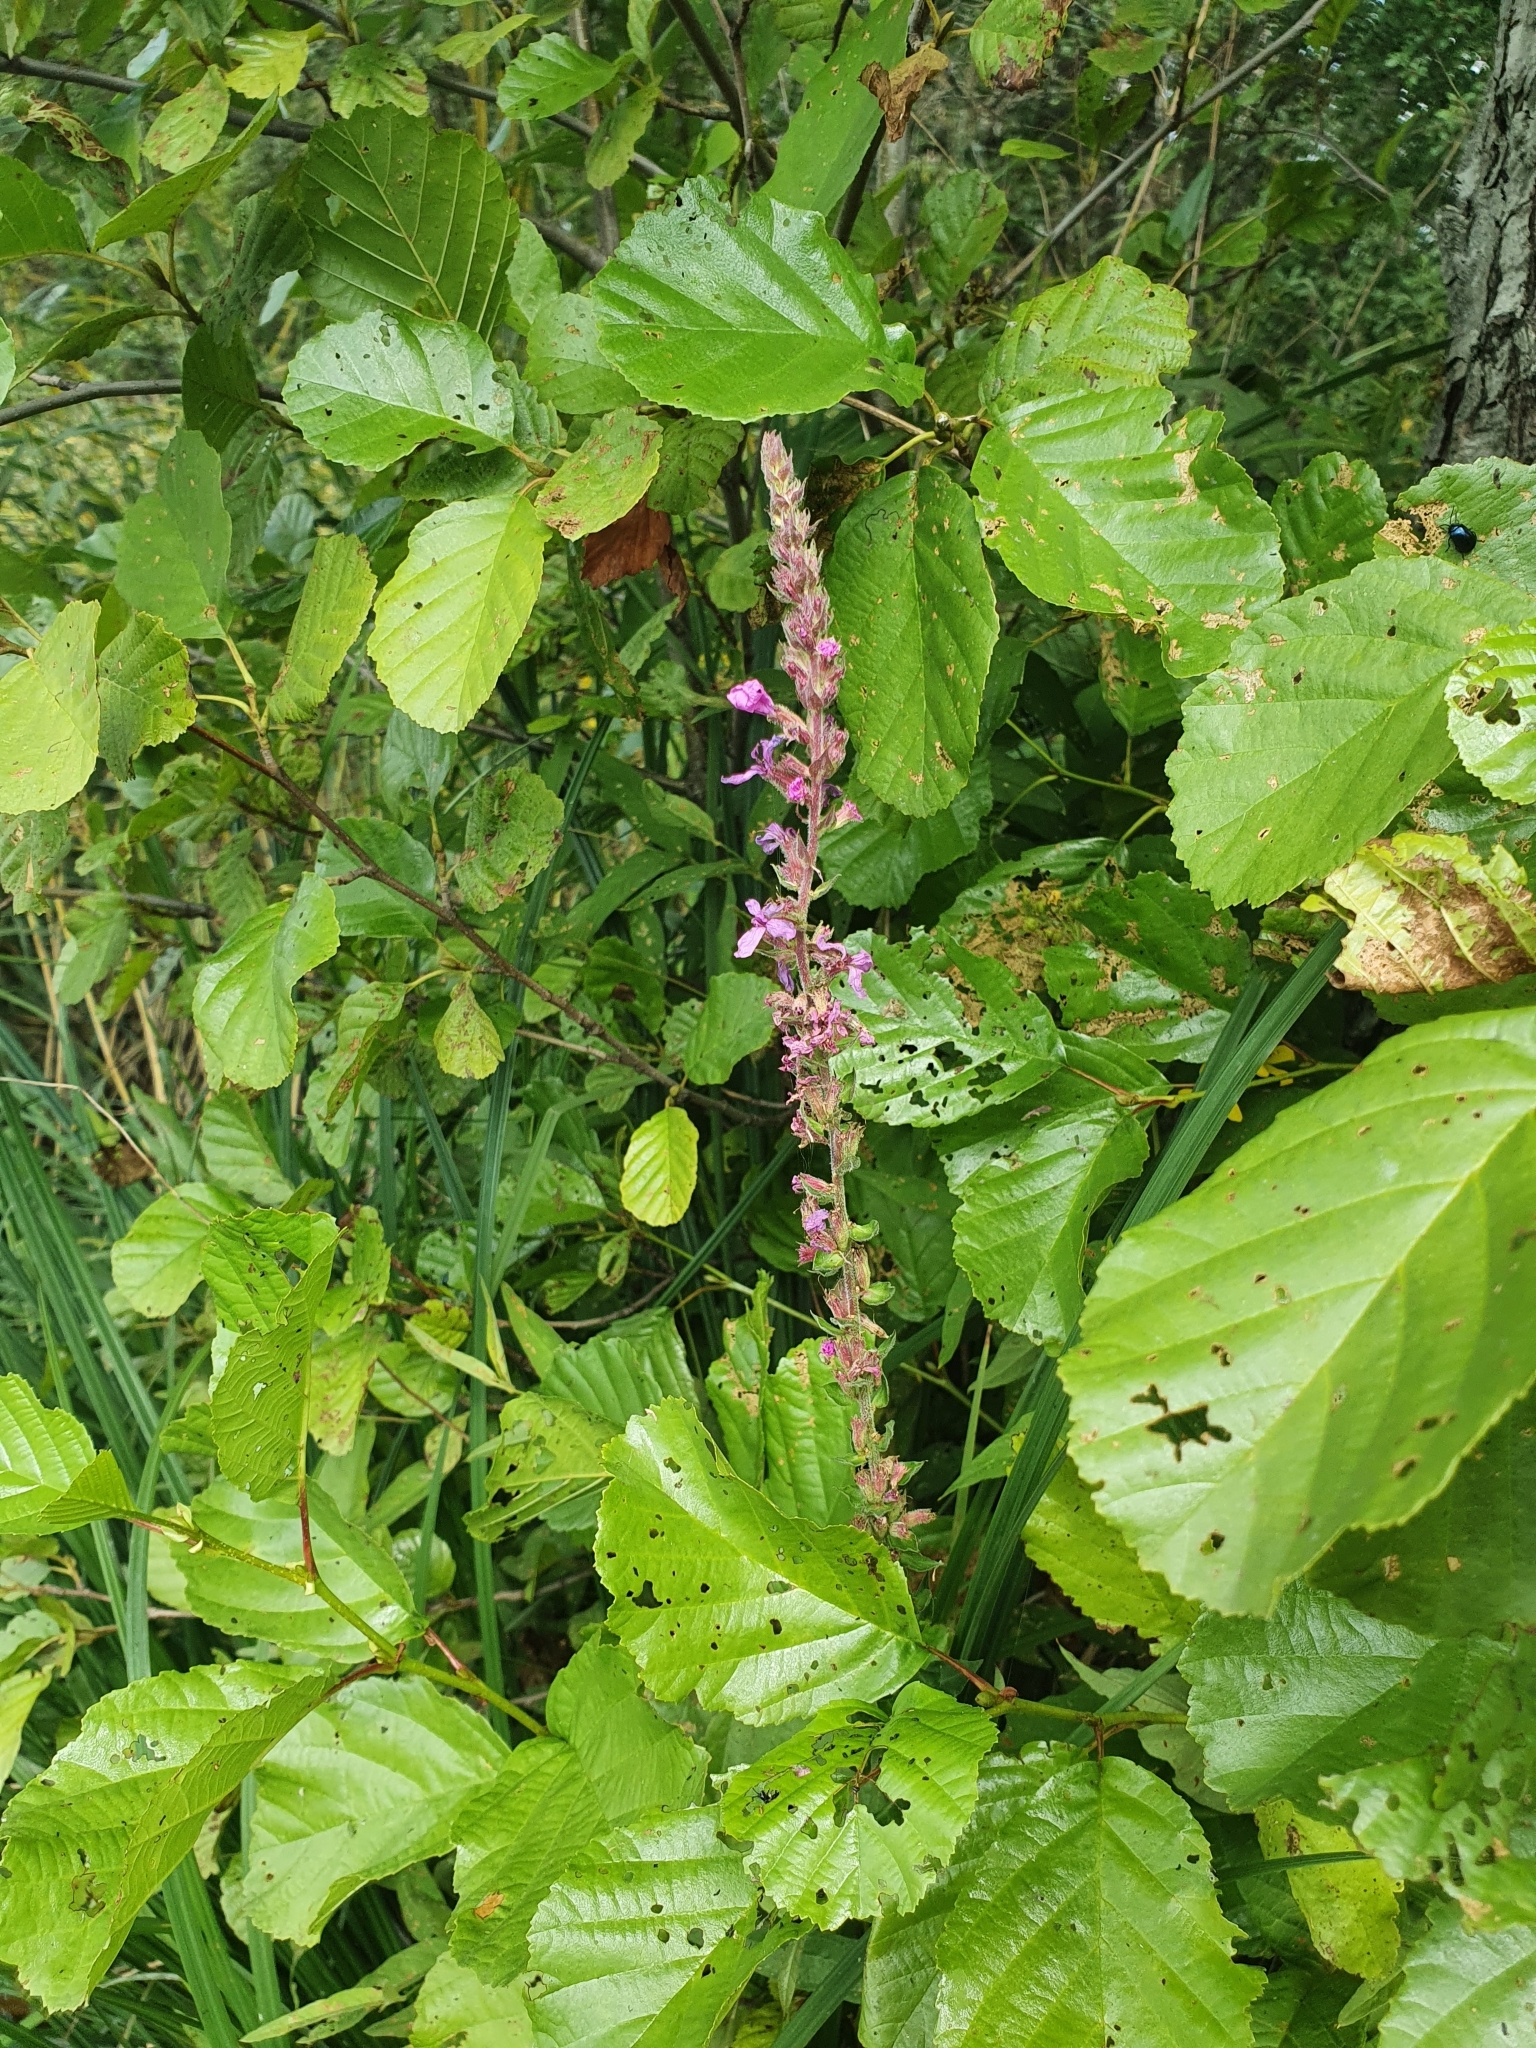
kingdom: Plantae
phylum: Tracheophyta
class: Magnoliopsida
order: Myrtales
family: Lythraceae
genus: Lythrum
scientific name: Lythrum salicaria
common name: Purple loosestrife
